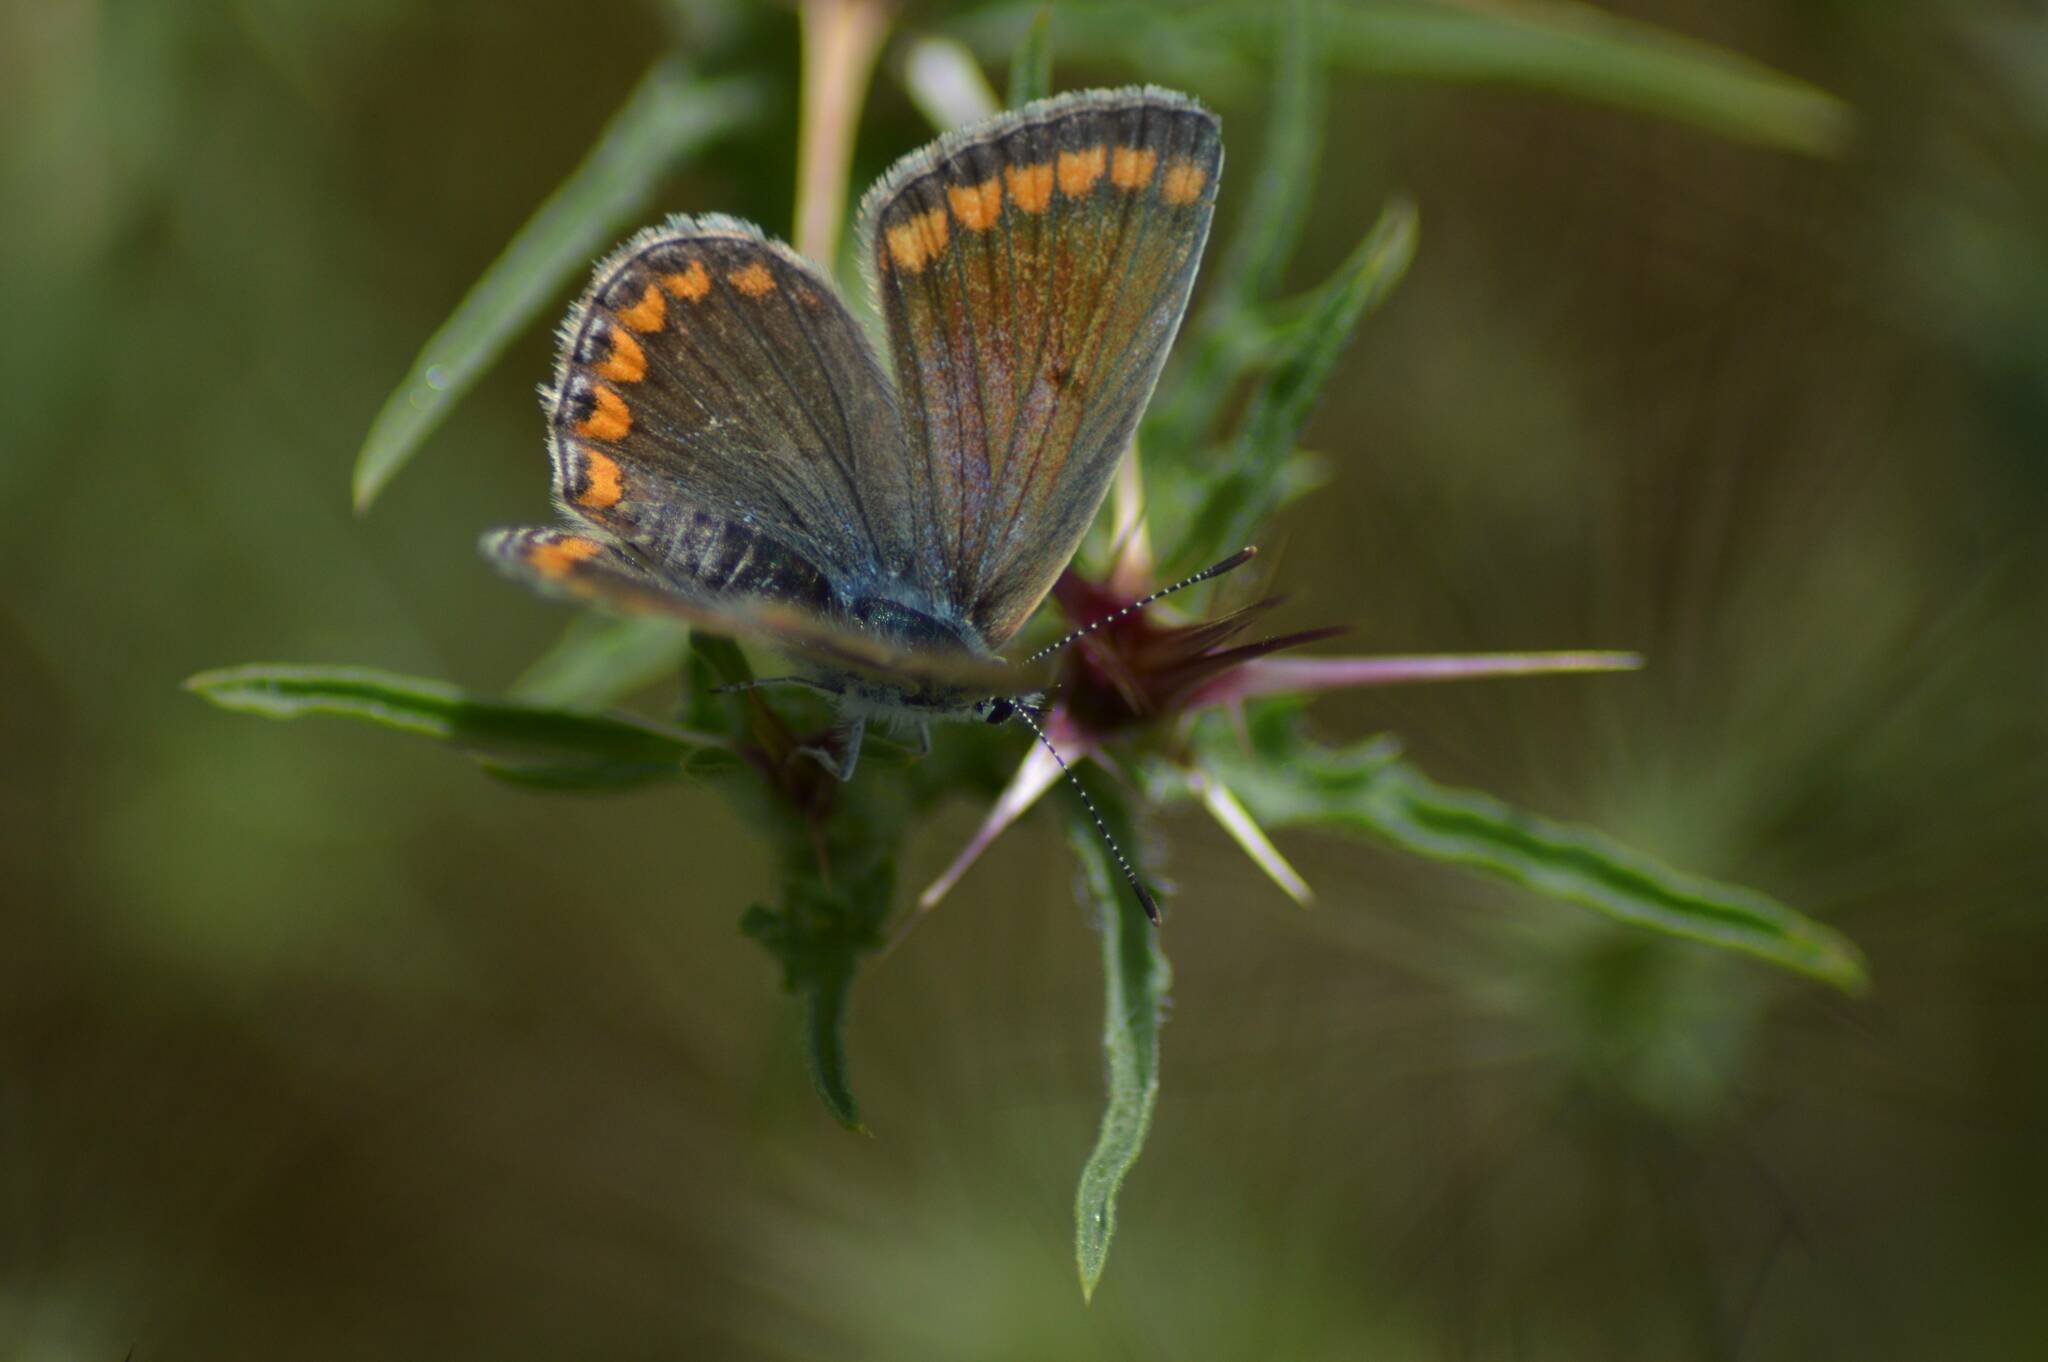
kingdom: Animalia
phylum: Arthropoda
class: Insecta
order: Lepidoptera
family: Lycaenidae
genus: Polyommatus
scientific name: Polyommatus celina
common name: Austaut's blue
